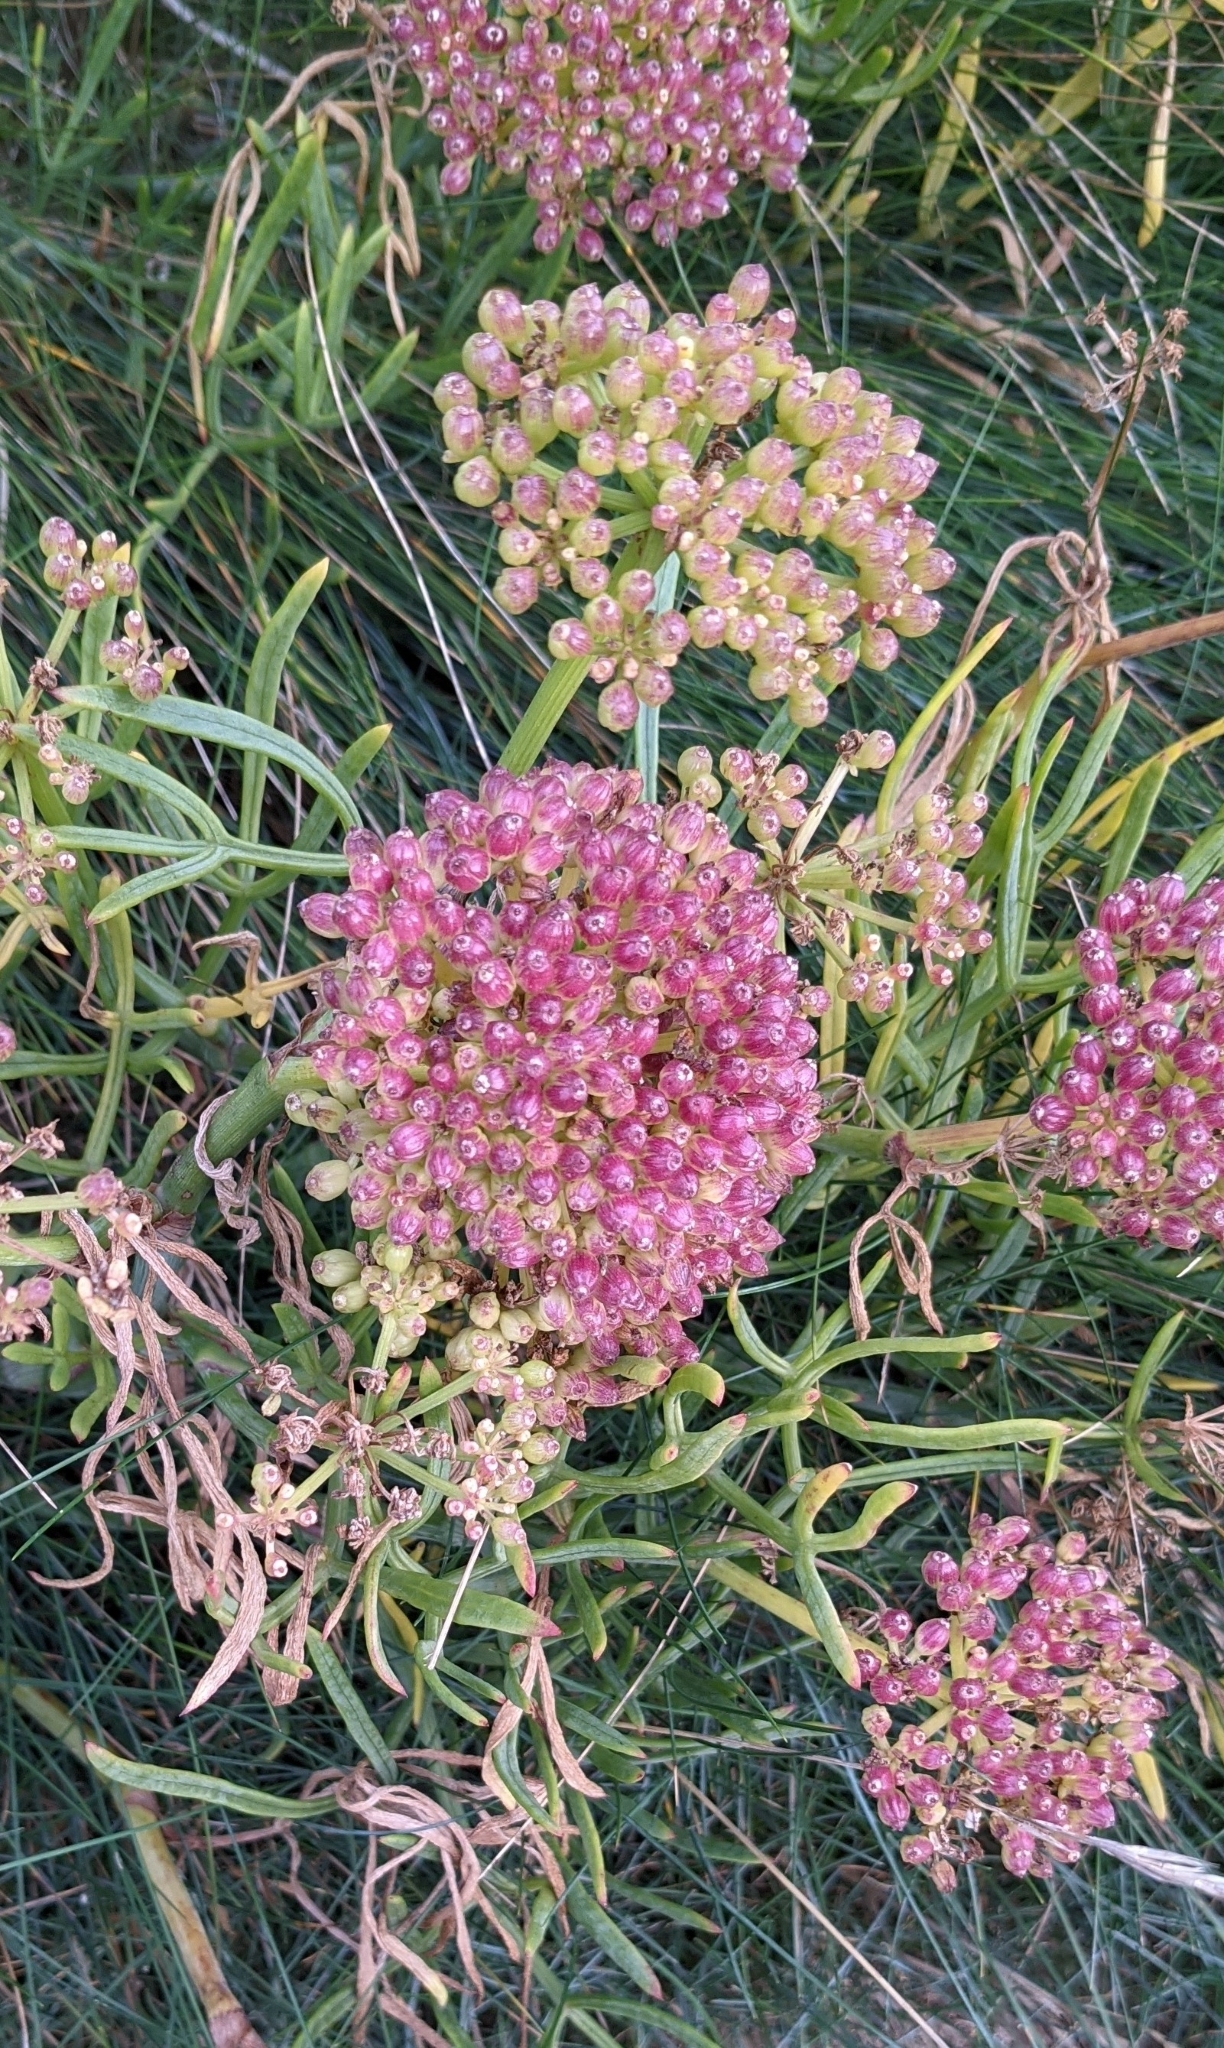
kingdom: Plantae
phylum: Tracheophyta
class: Magnoliopsida
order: Apiales
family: Apiaceae
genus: Crithmum
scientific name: Crithmum maritimum
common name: Rock samphire
